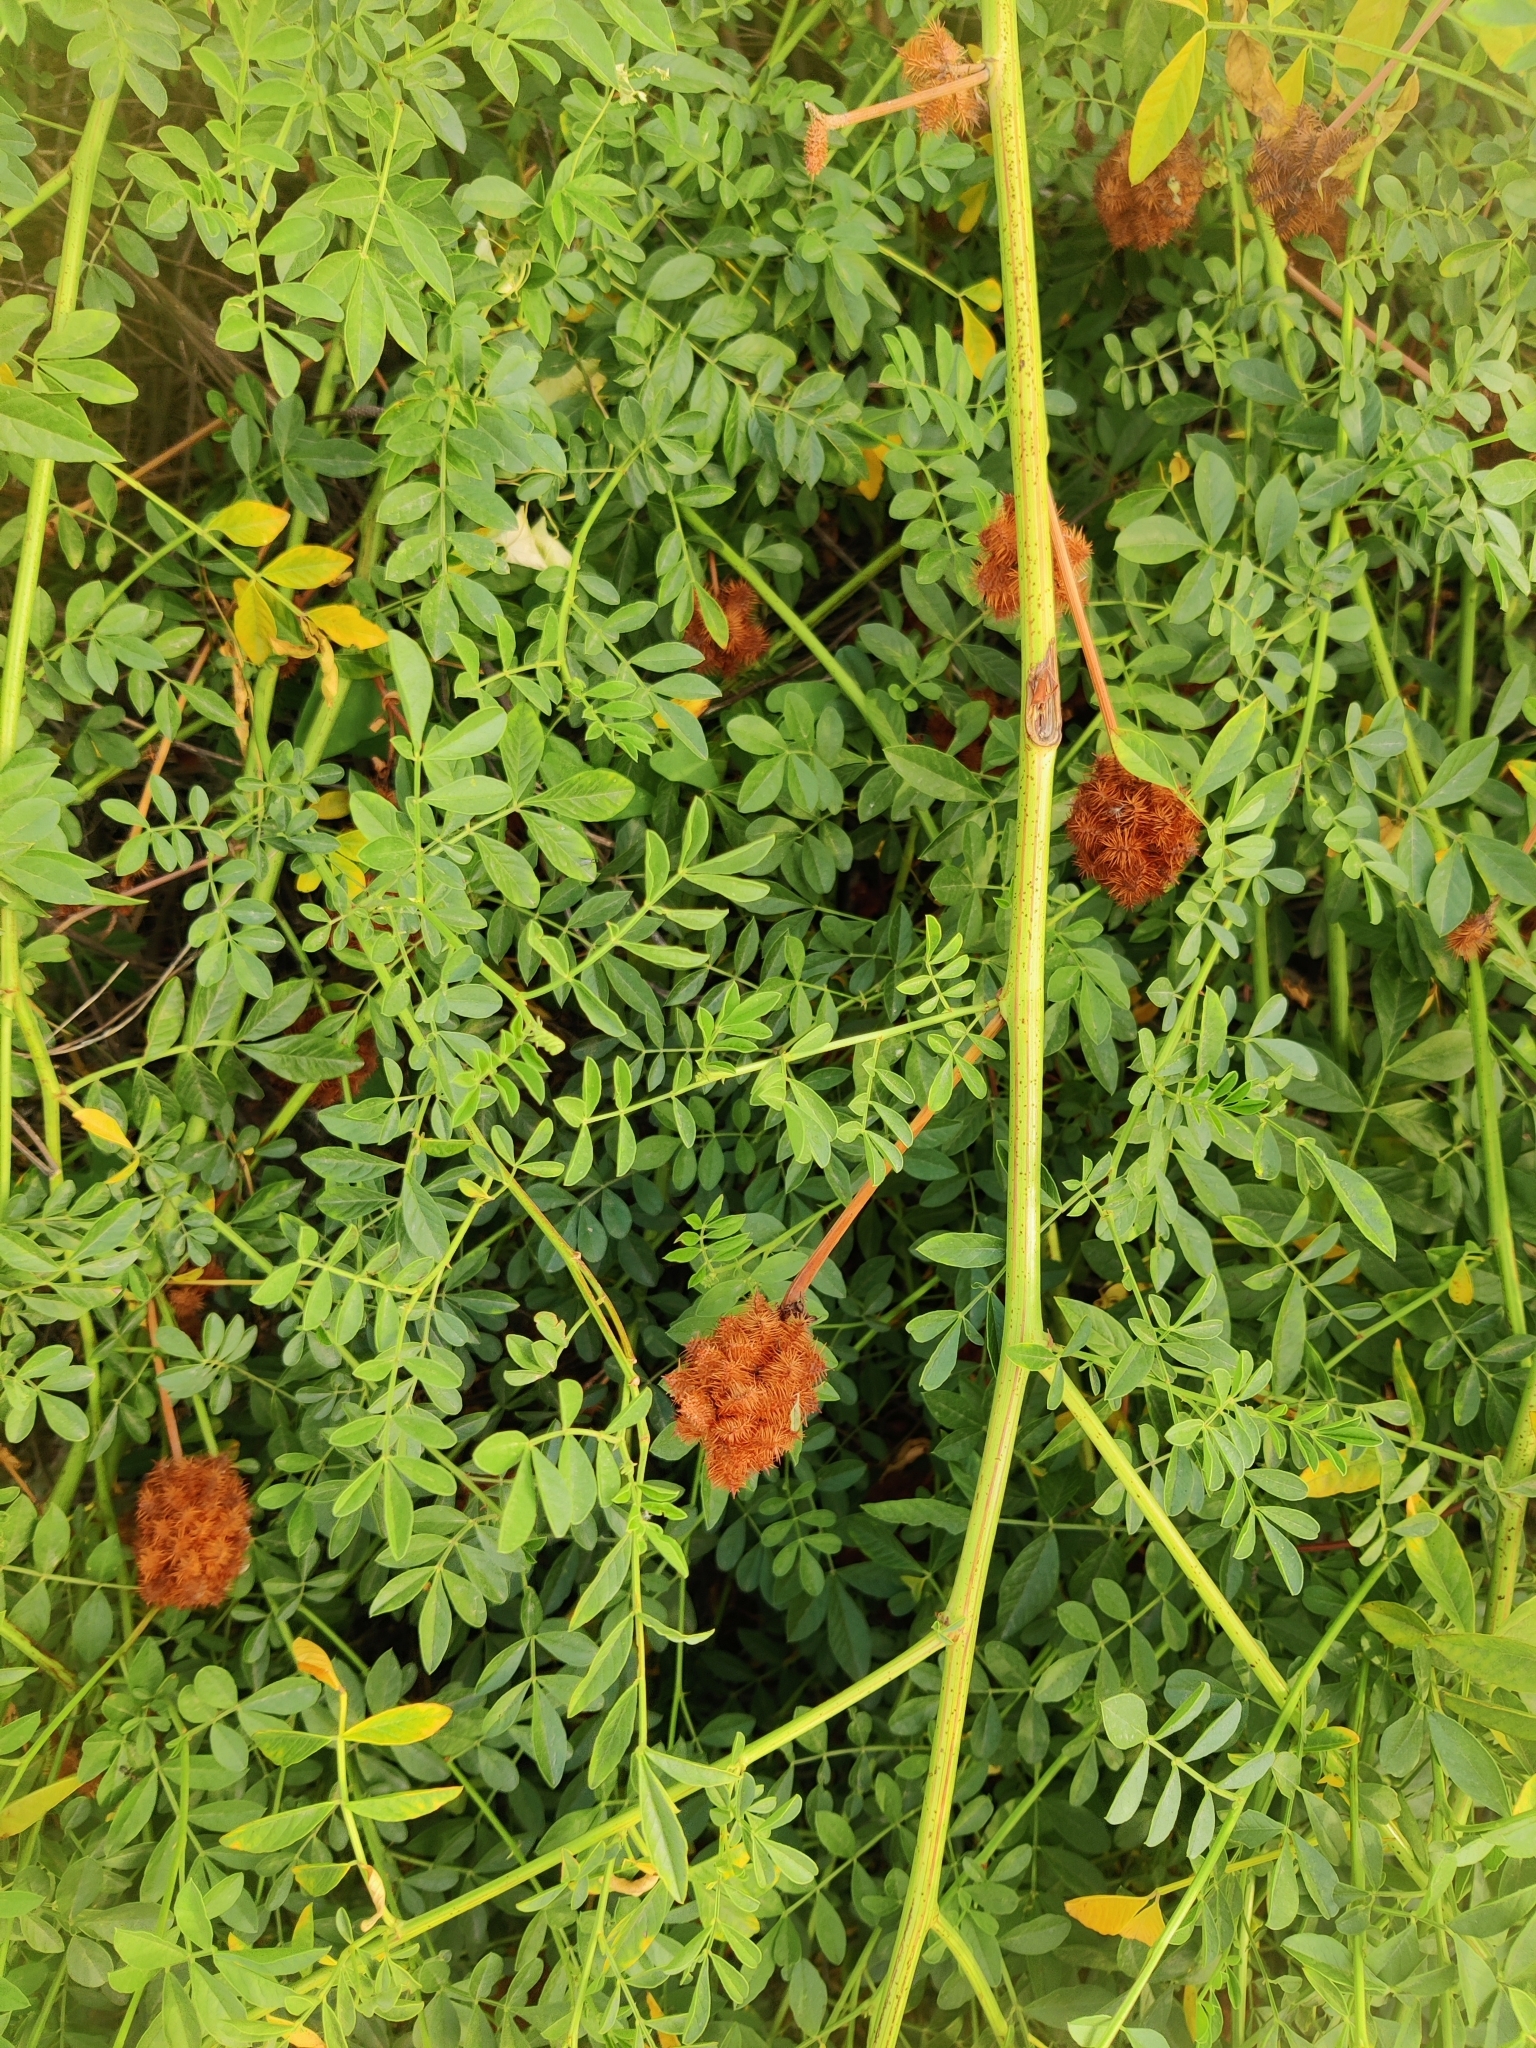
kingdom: Plantae
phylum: Tracheophyta
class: Magnoliopsida
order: Fabales
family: Fabaceae
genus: Glycyrrhiza
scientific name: Glycyrrhiza echinata
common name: German liquorice
